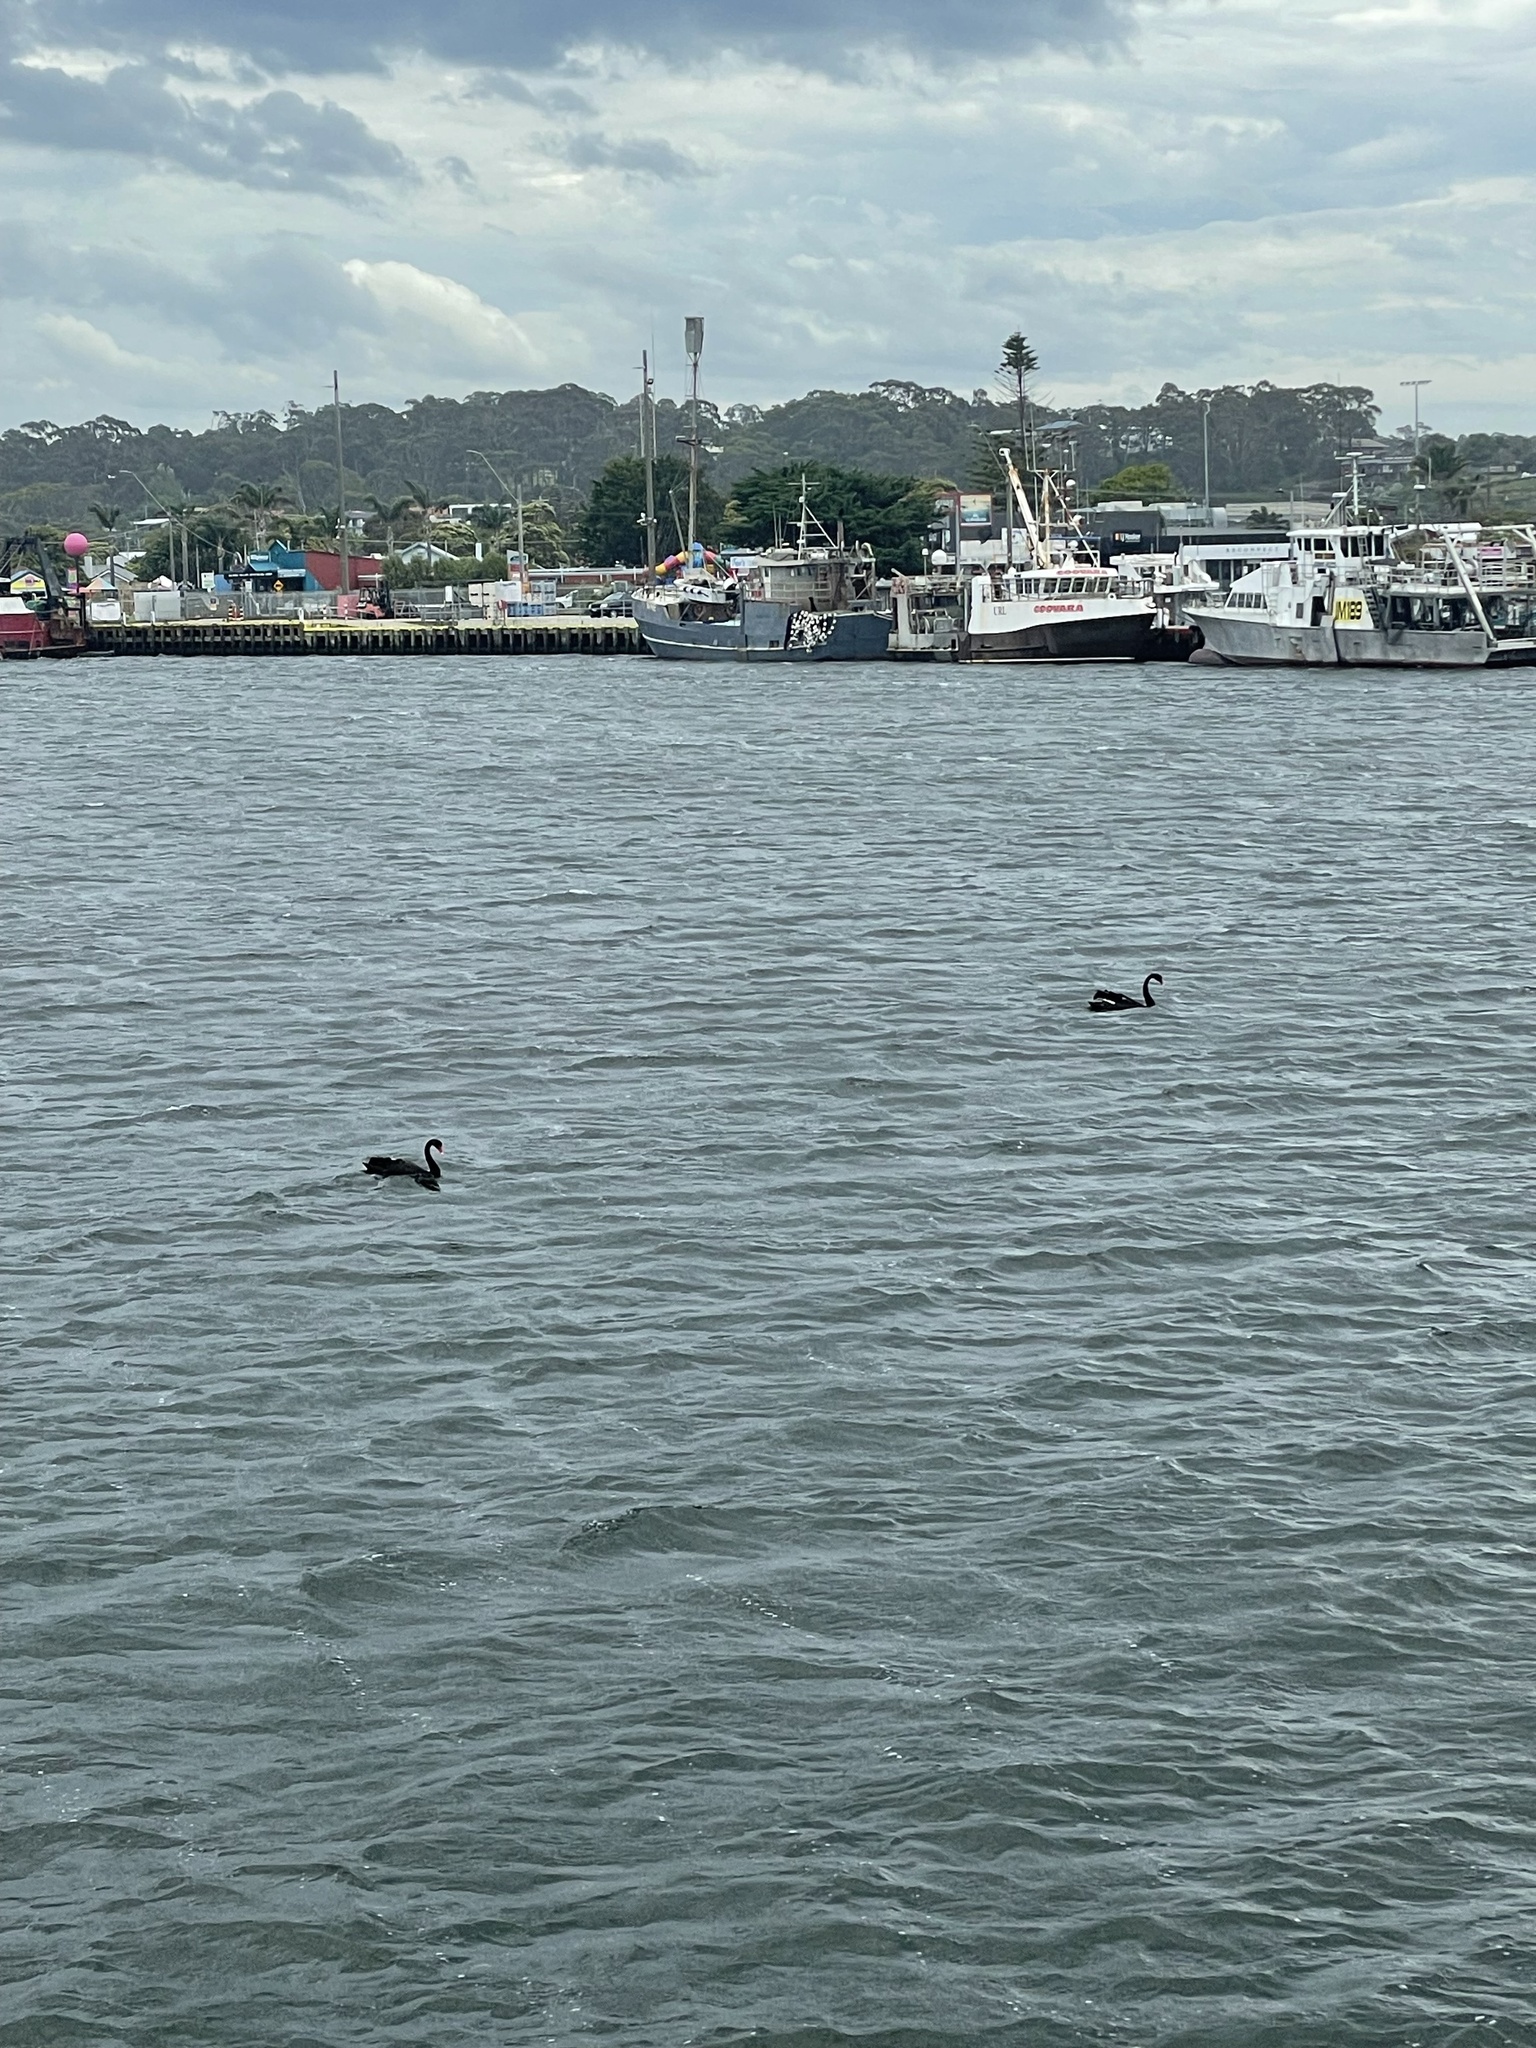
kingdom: Animalia
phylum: Chordata
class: Aves
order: Anseriformes
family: Anatidae
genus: Cygnus
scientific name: Cygnus atratus
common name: Black swan
